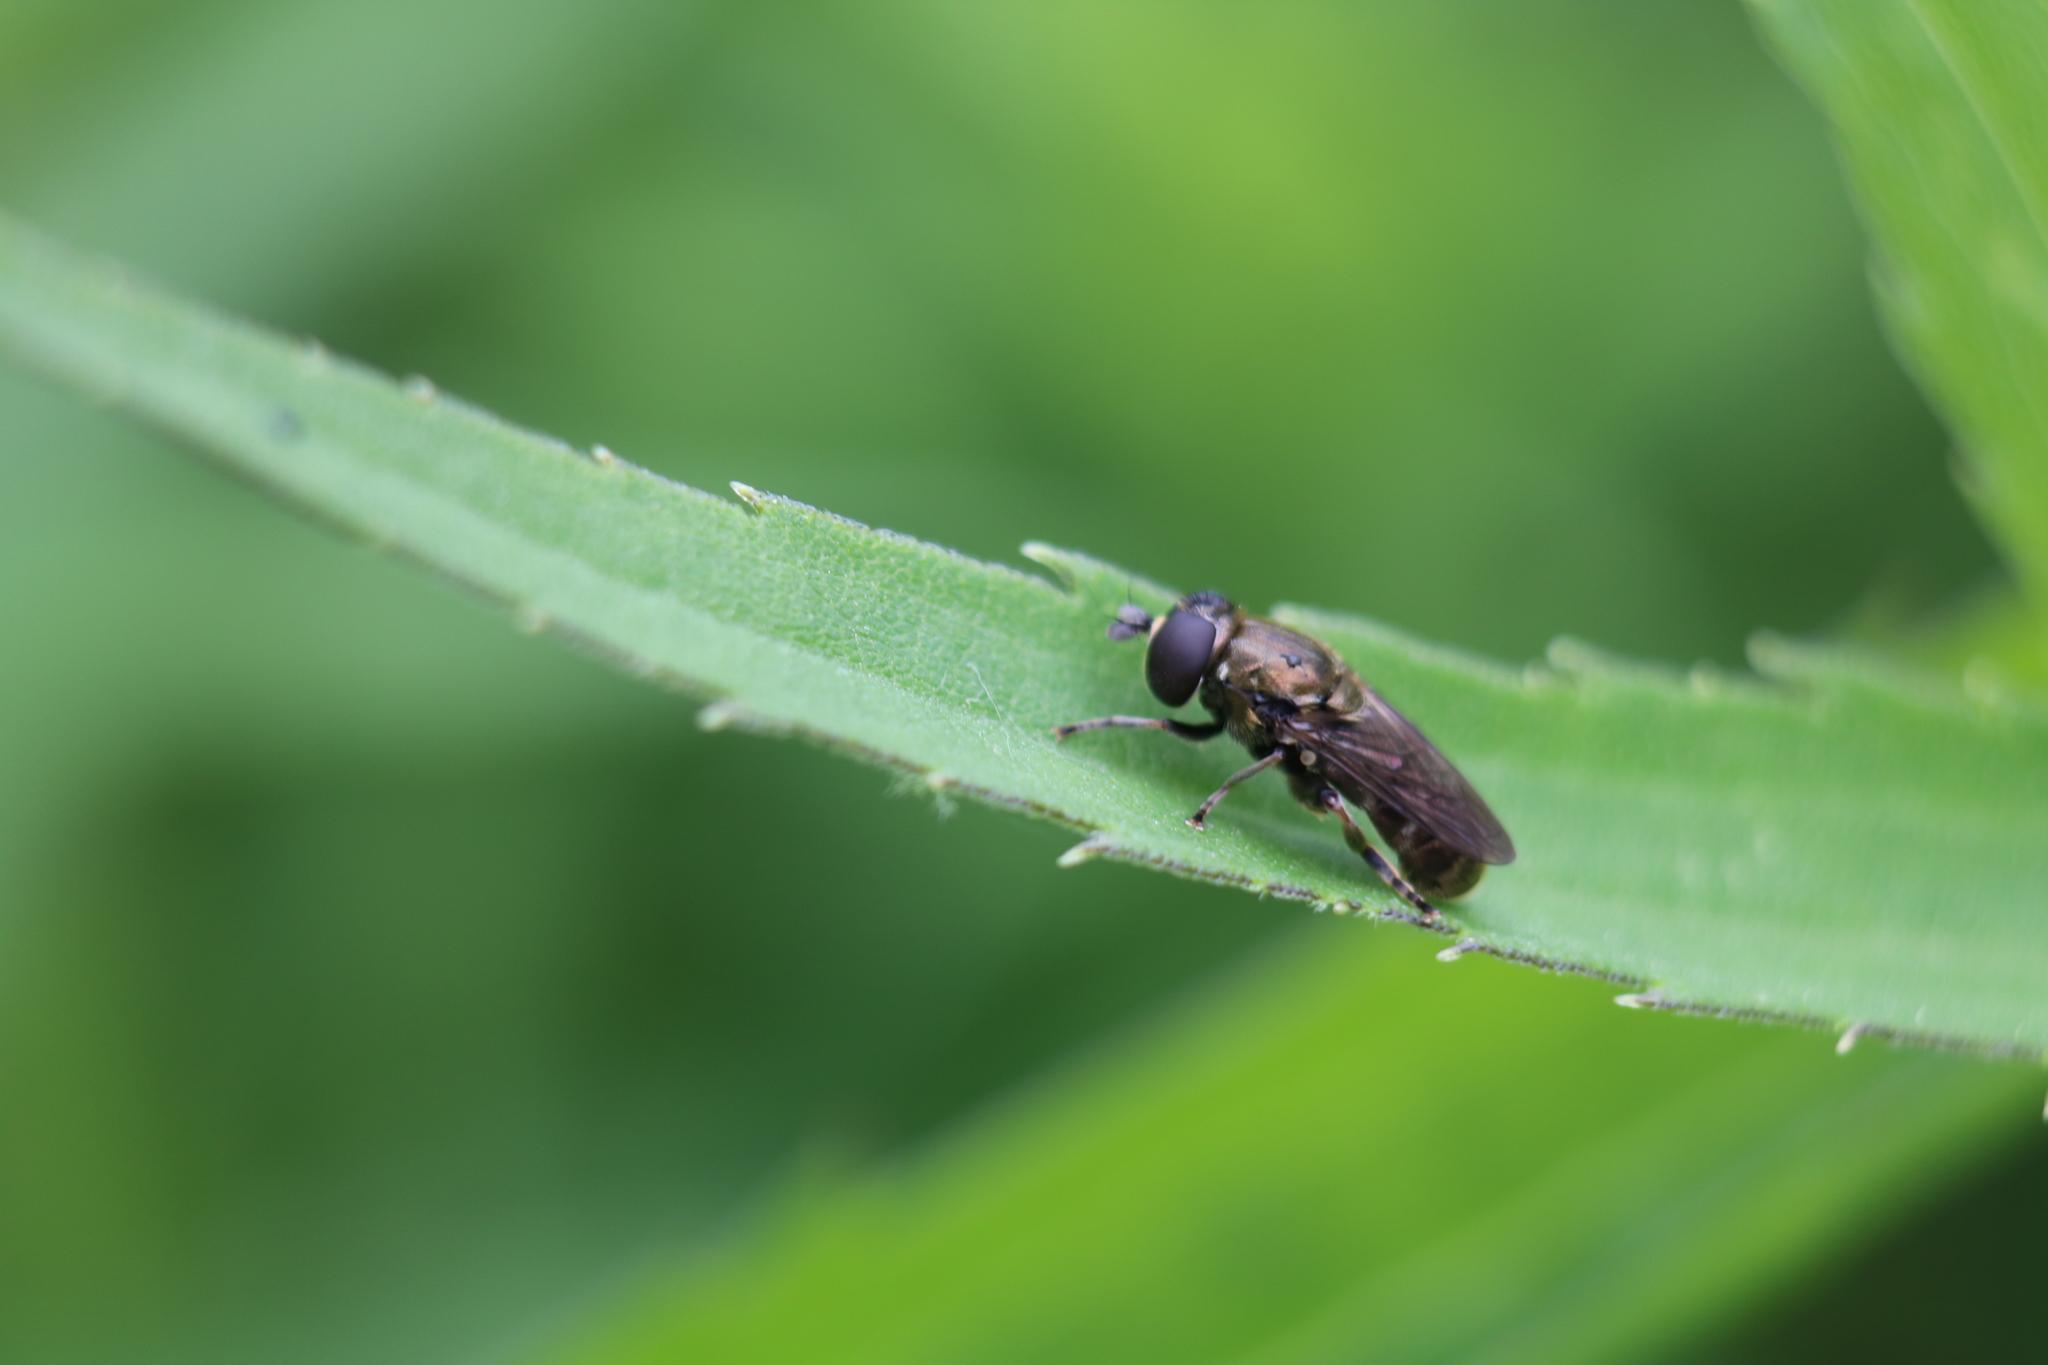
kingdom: Animalia
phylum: Arthropoda
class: Insecta
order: Diptera
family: Syrphidae
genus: Eumerus
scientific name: Eumerus
